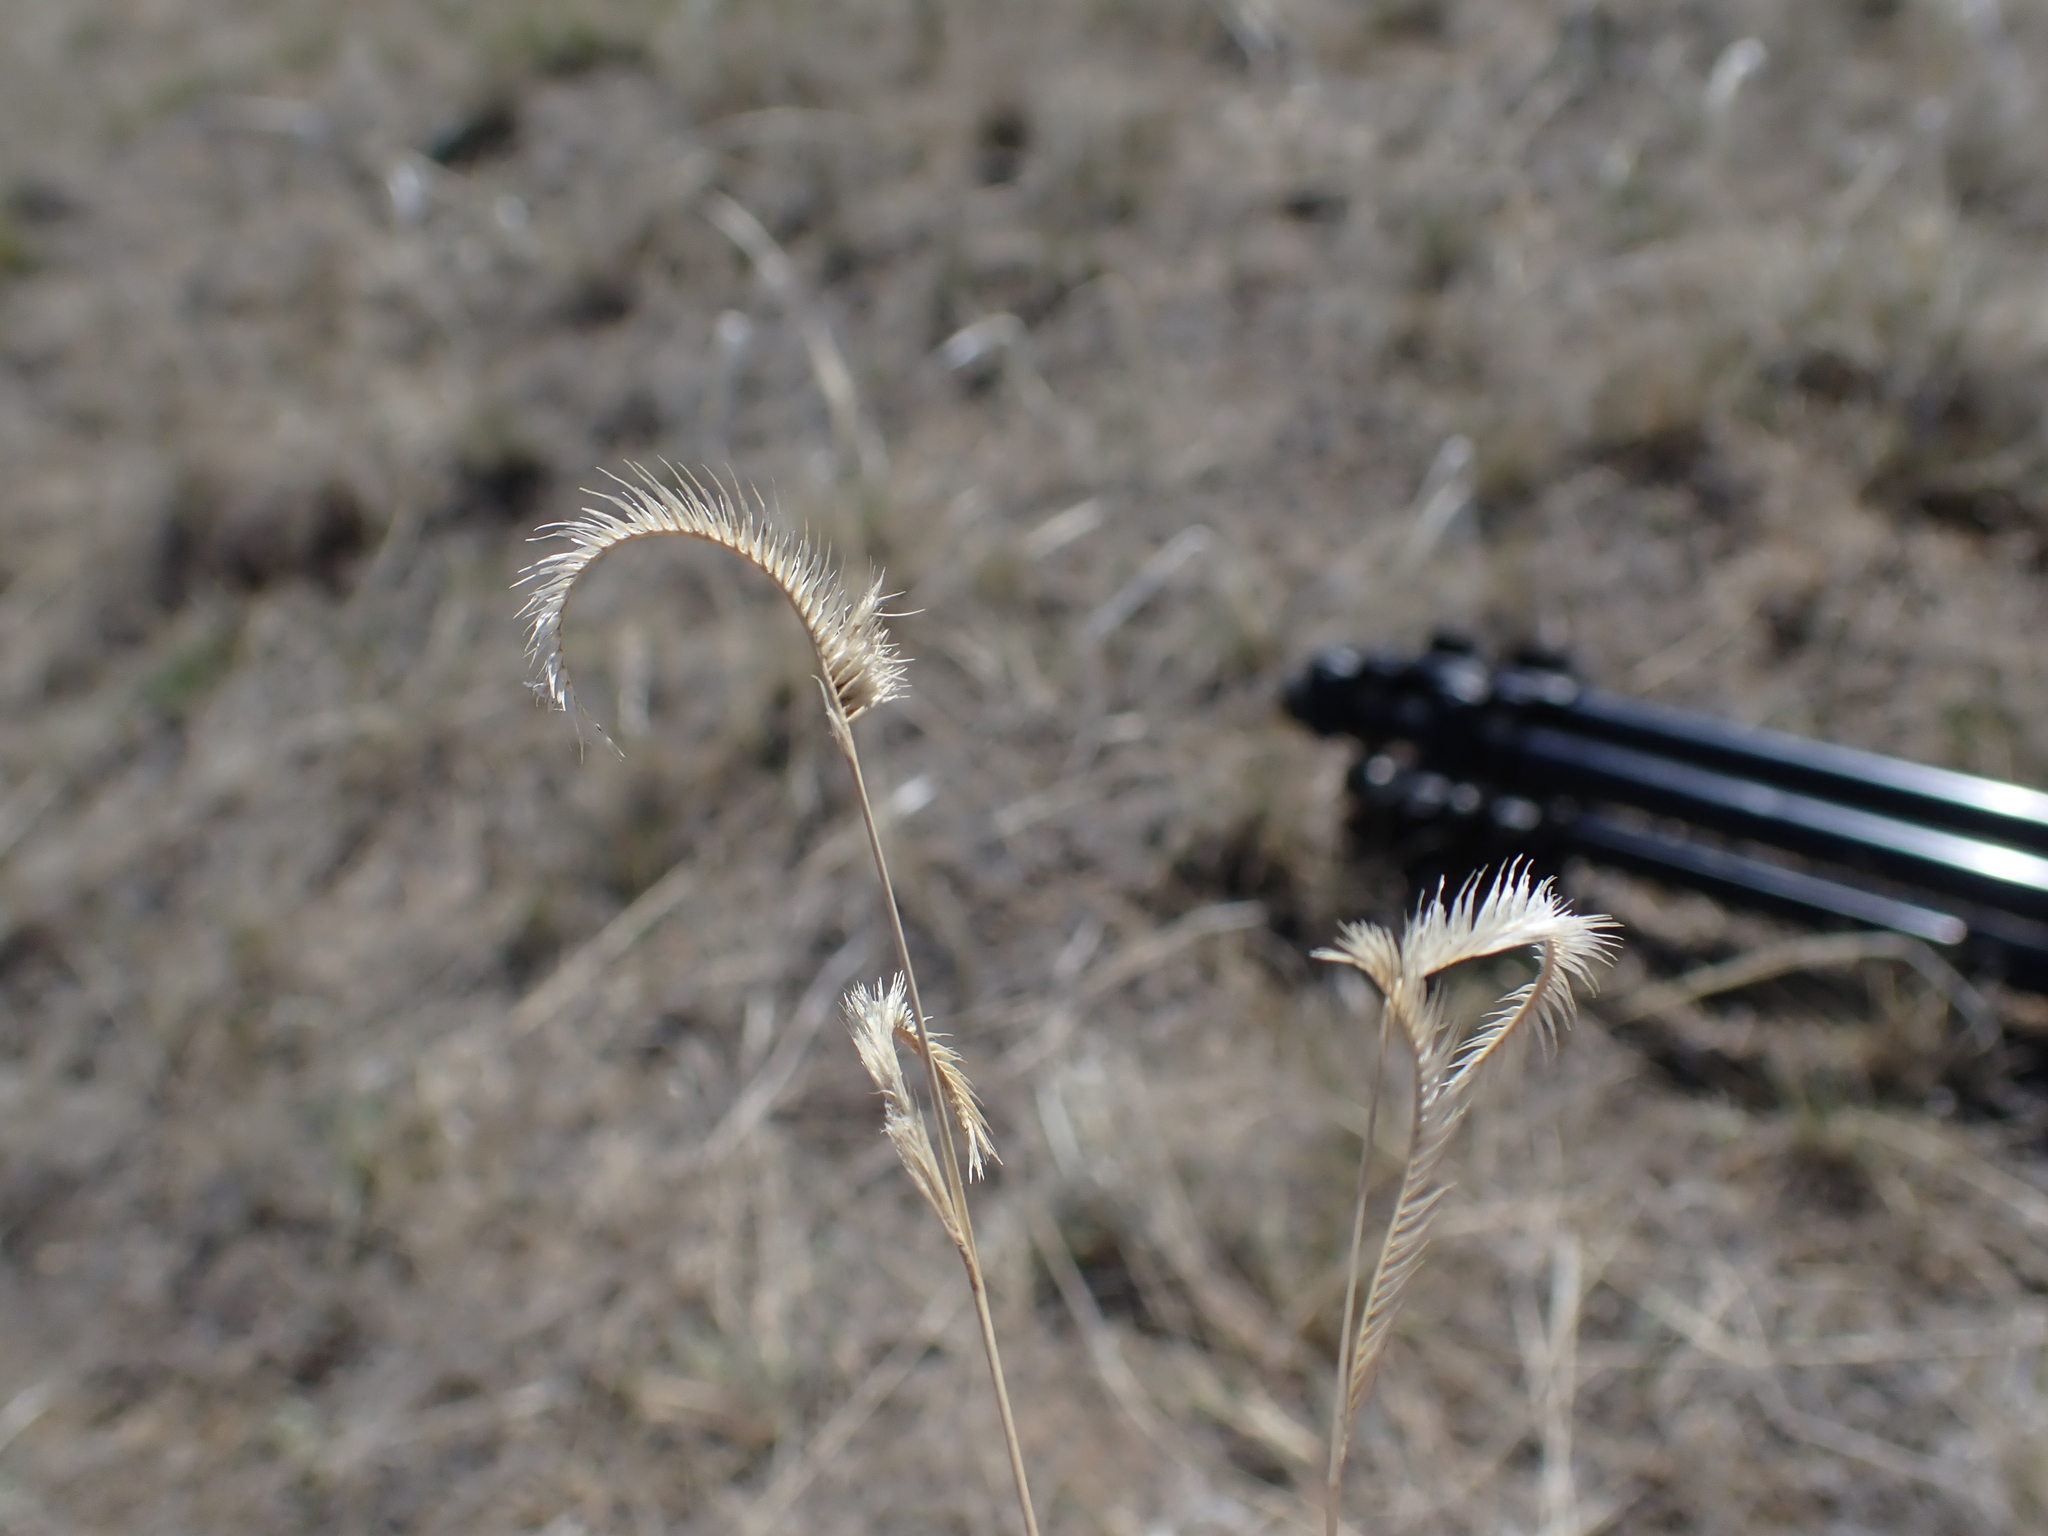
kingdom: Plantae
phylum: Tracheophyta
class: Liliopsida
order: Poales
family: Poaceae
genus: Bouteloua
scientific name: Bouteloua gracilis
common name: Blue grama
